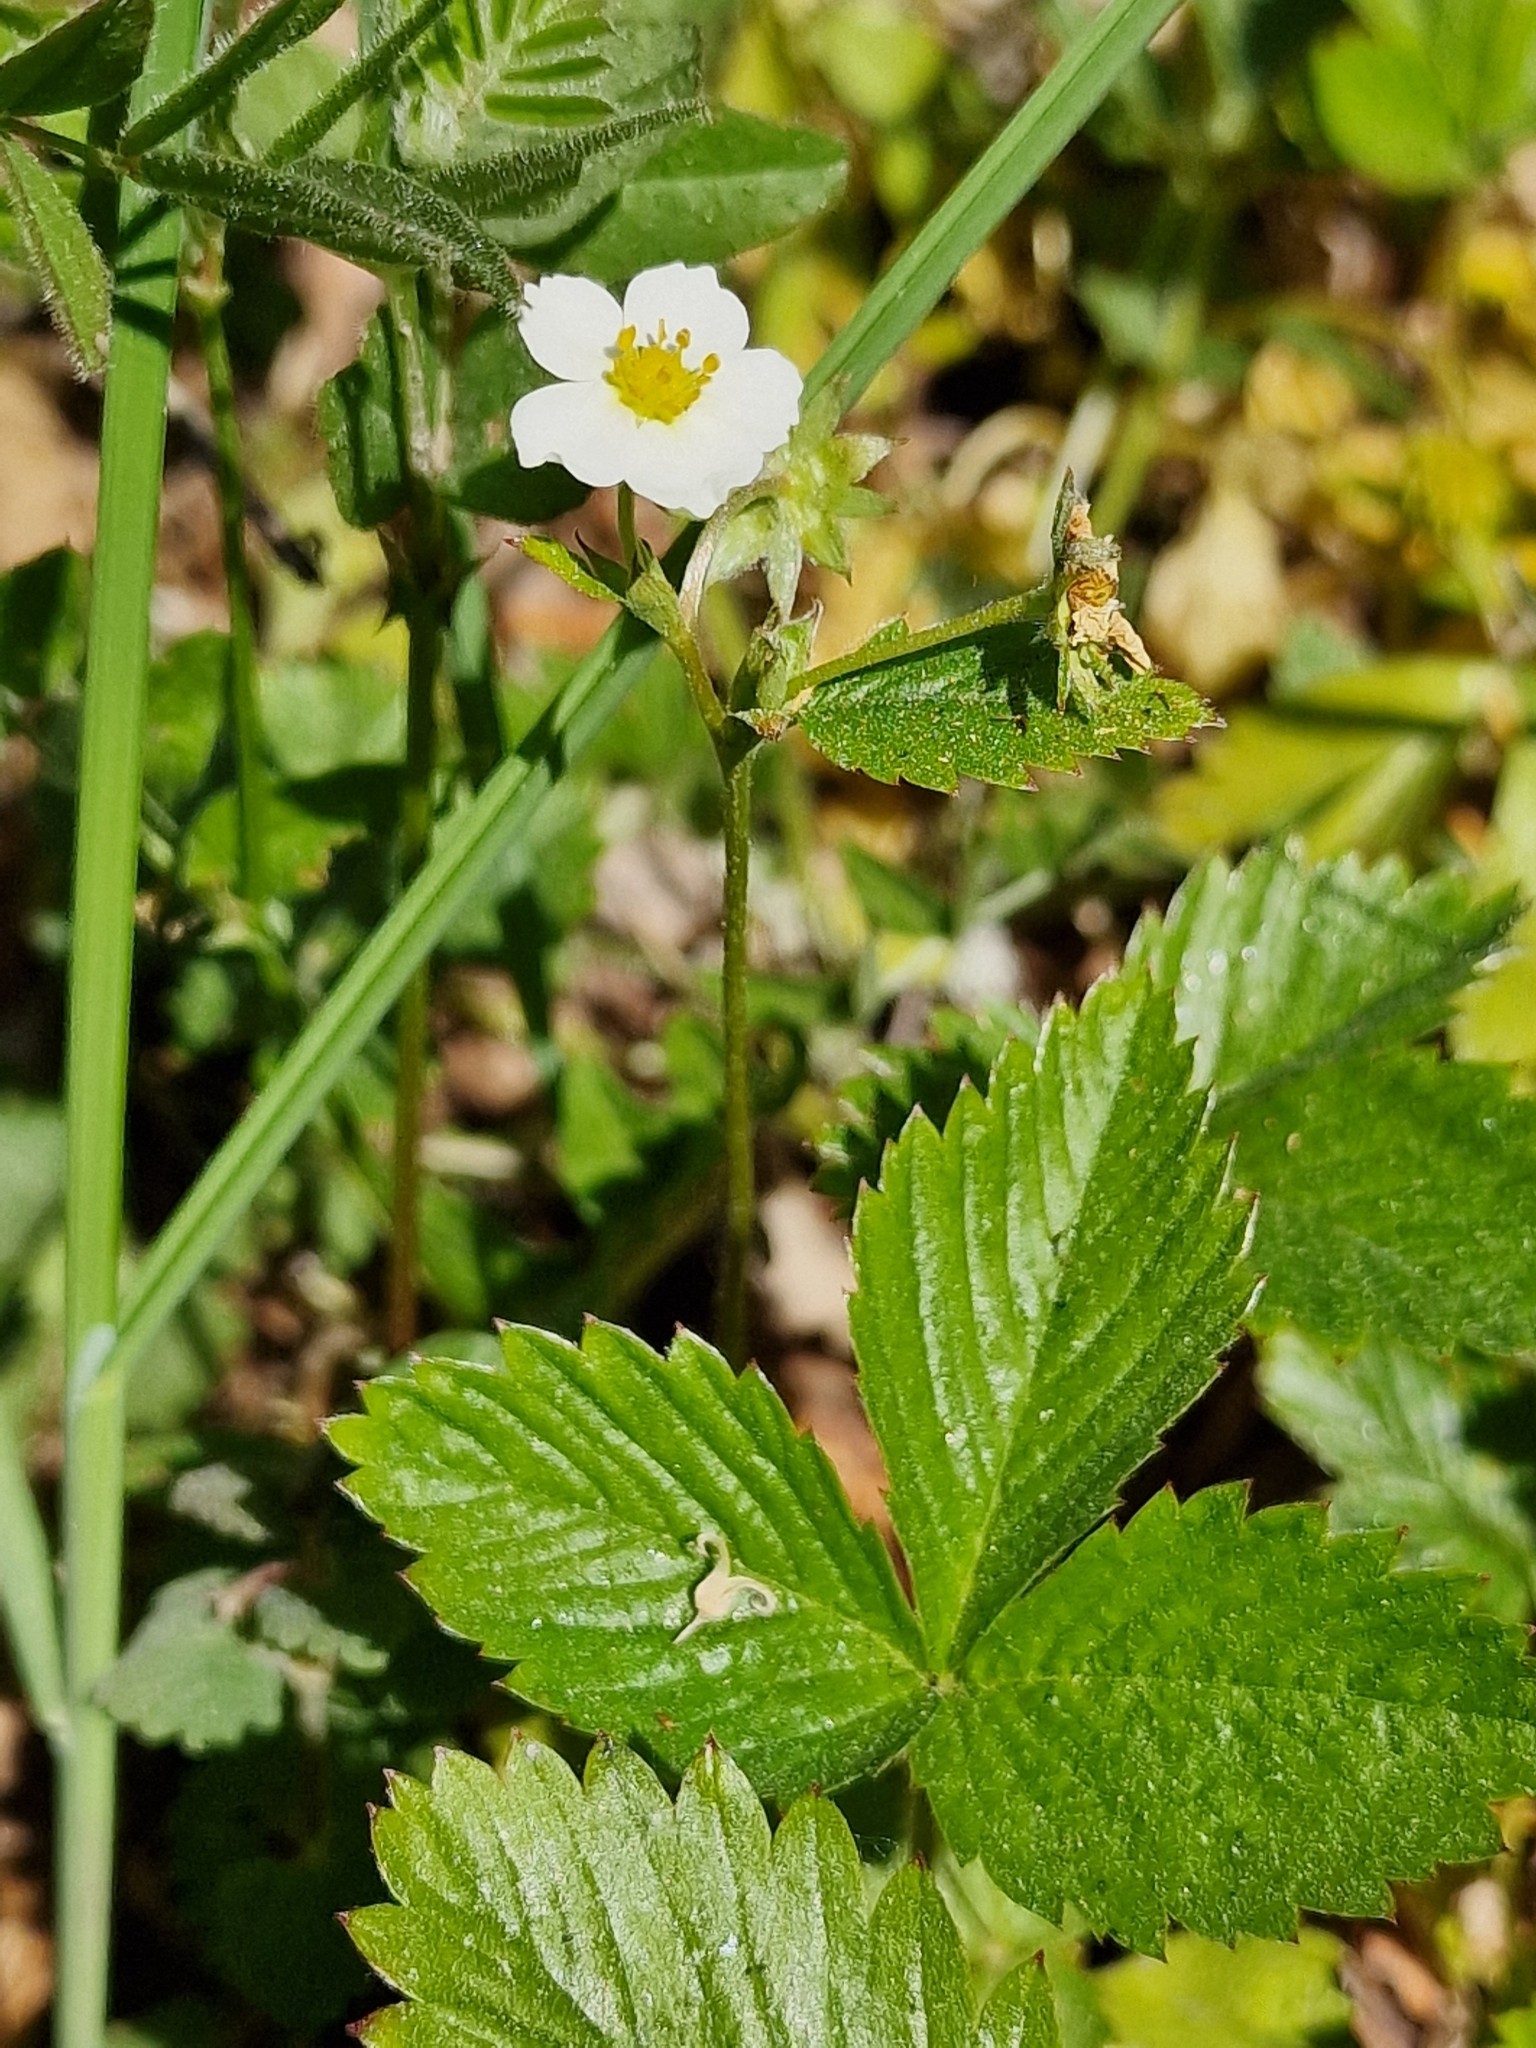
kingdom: Plantae
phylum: Tracheophyta
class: Magnoliopsida
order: Rosales
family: Rosaceae
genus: Fragaria
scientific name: Fragaria vesca
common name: Wild strawberry
